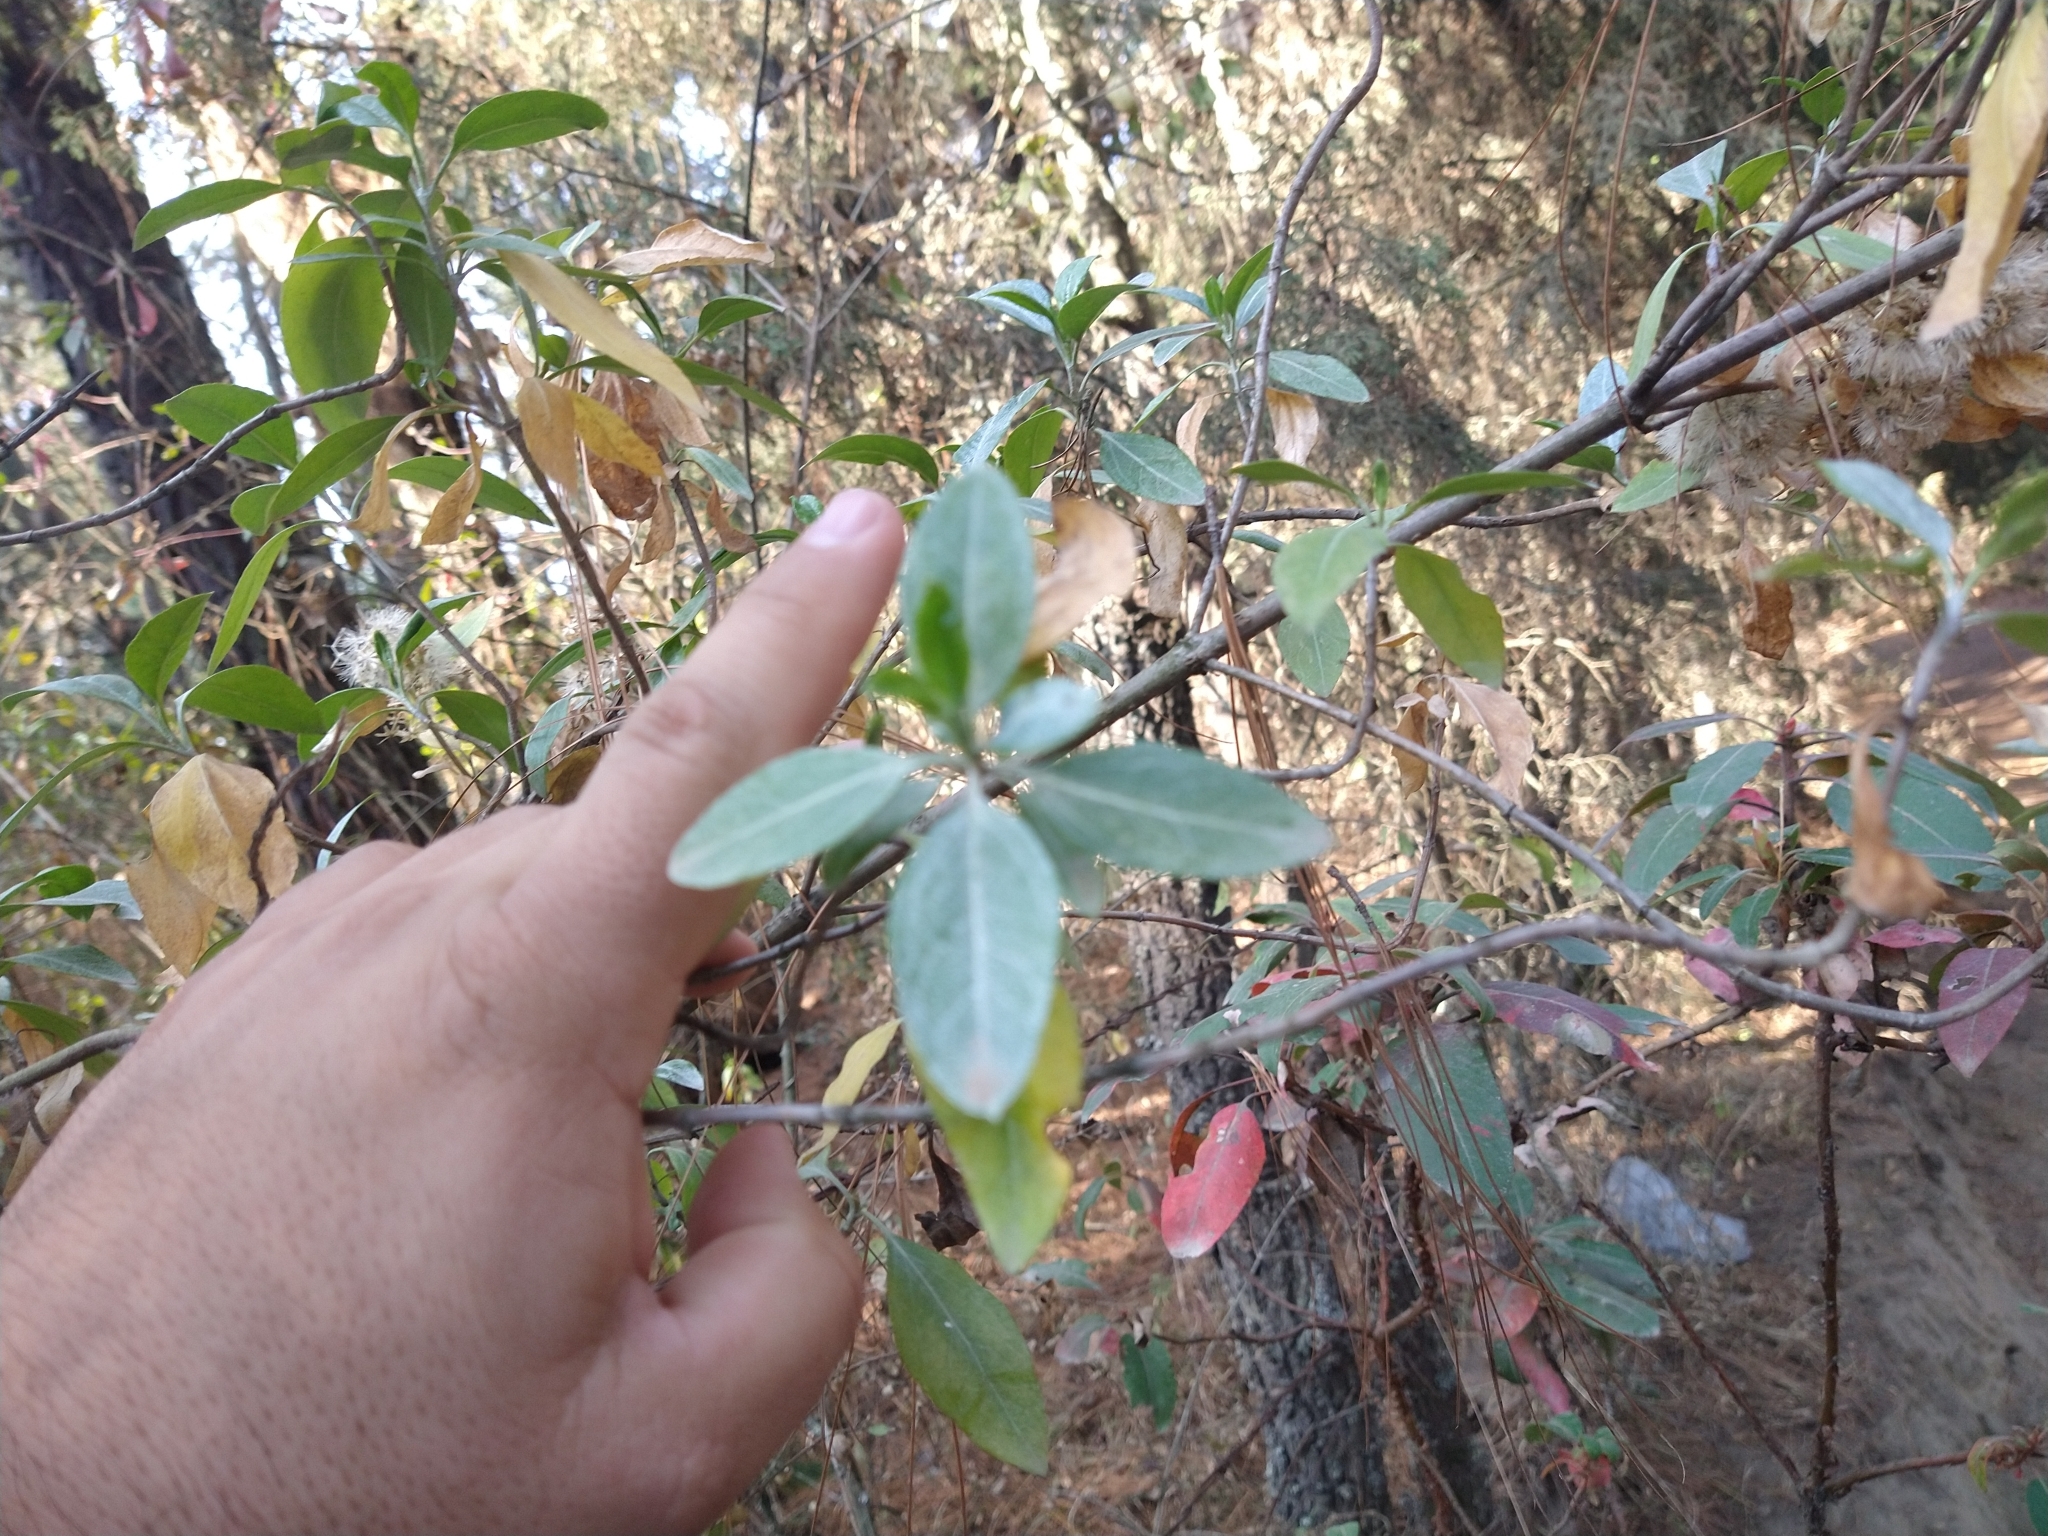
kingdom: Plantae
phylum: Tracheophyta
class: Magnoliopsida
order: Asterales
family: Asteraceae
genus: Ageratina
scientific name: Ageratina glabrata
